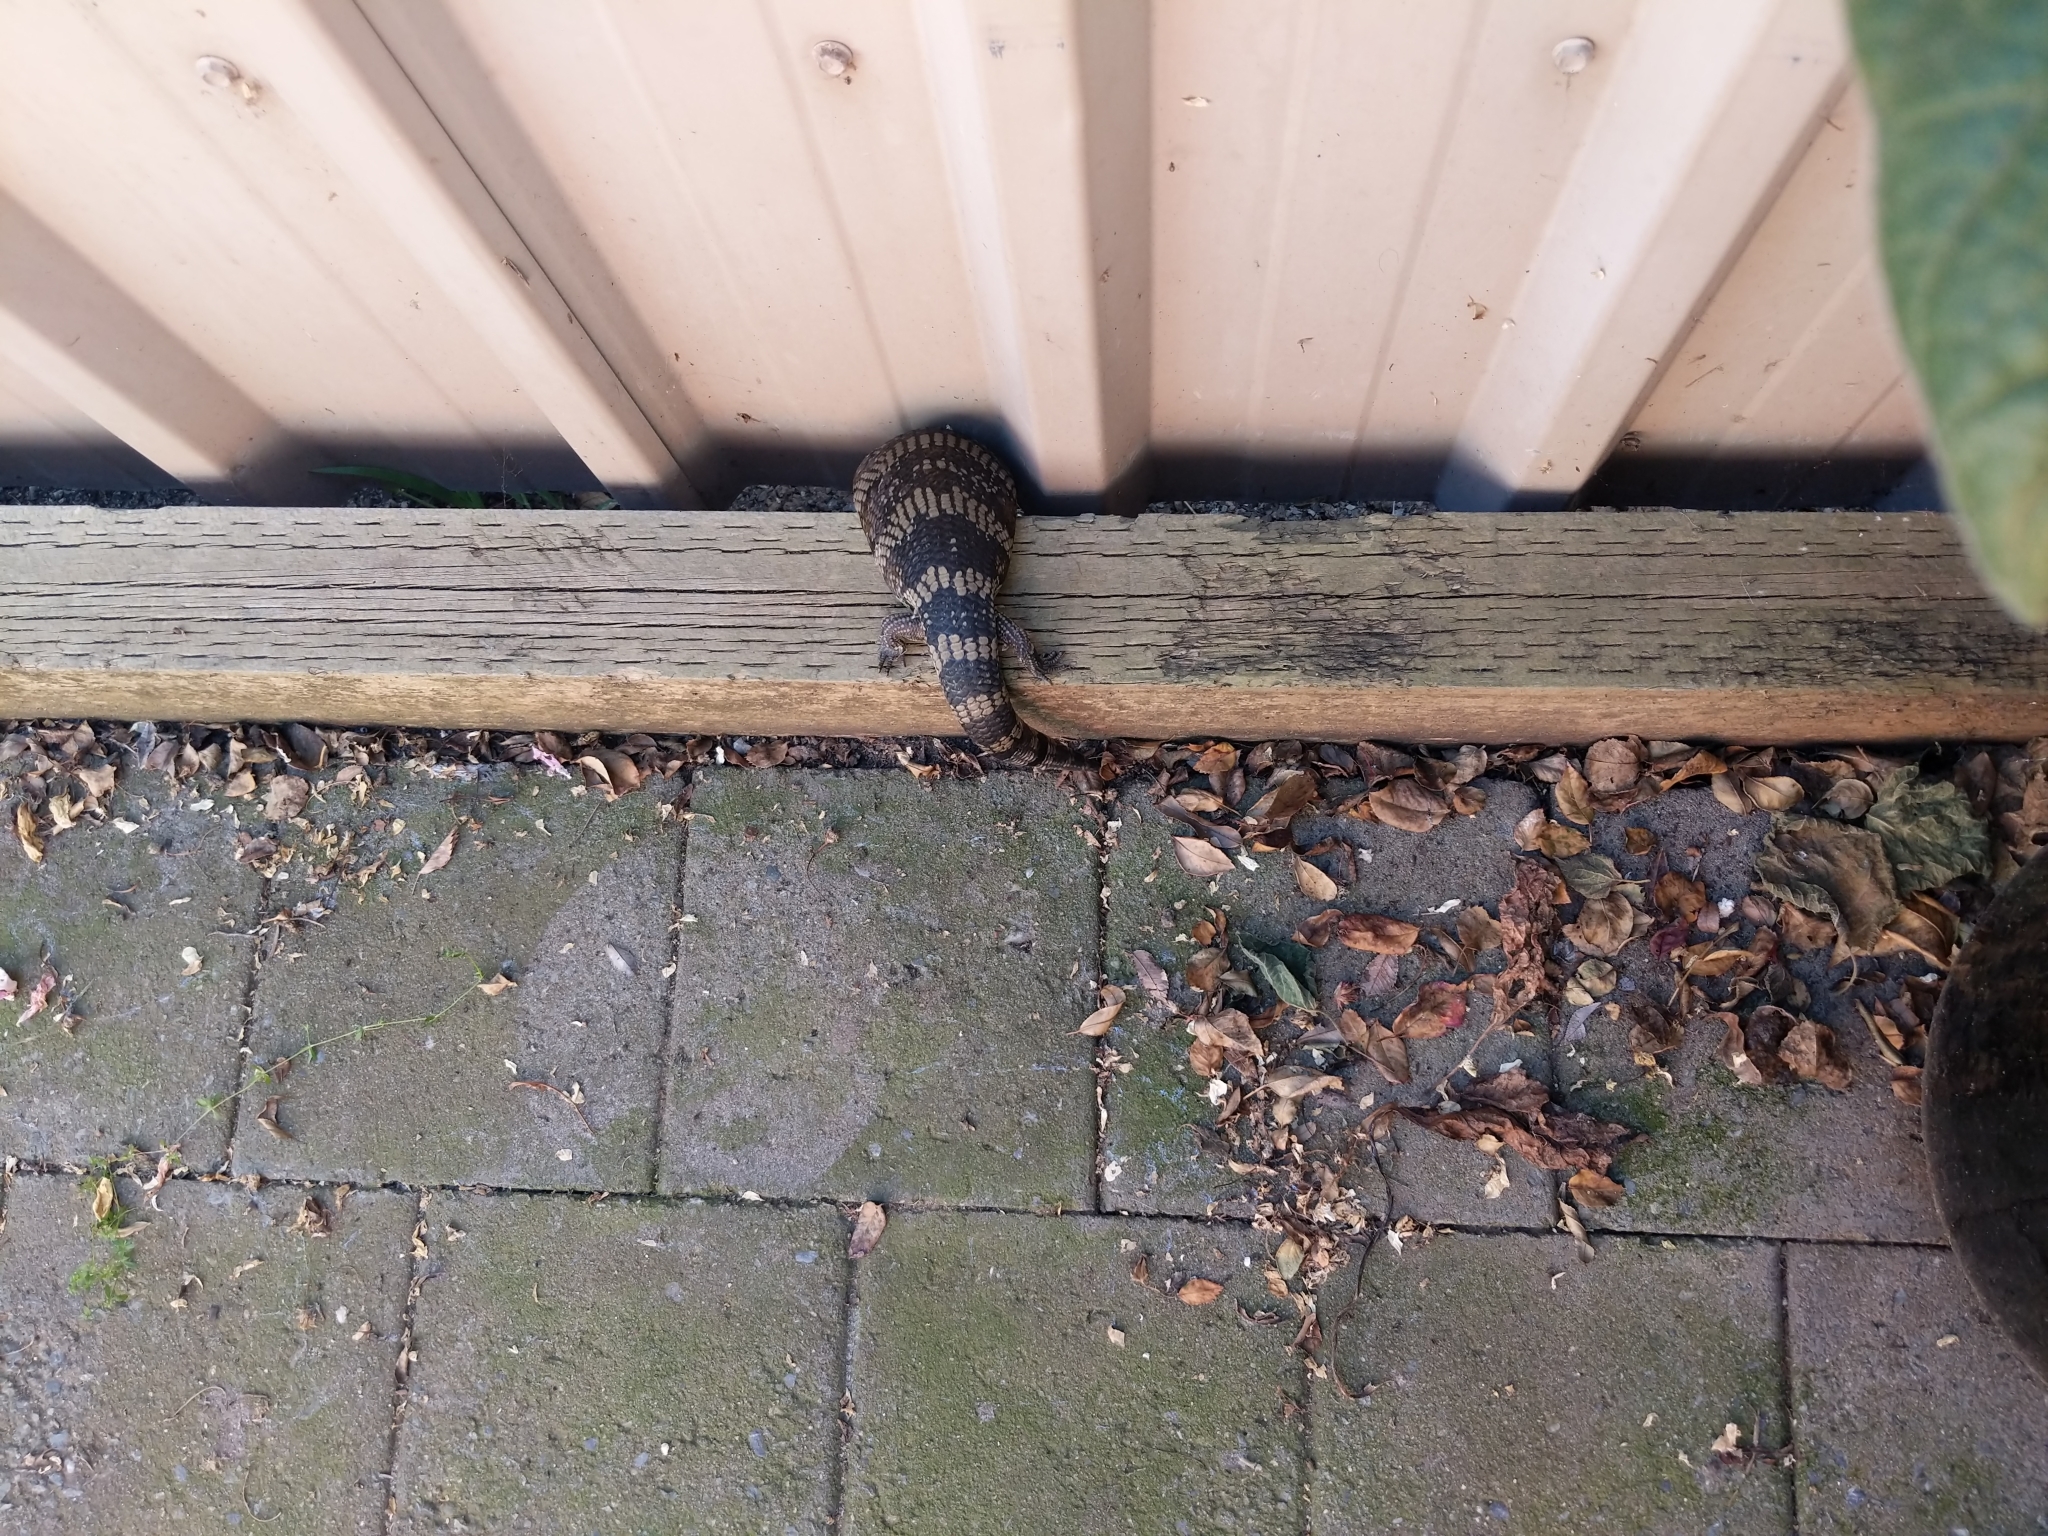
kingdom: Animalia
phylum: Chordata
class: Squamata
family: Scincidae
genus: Tiliqua
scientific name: Tiliqua scincoides
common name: Common bluetongue
